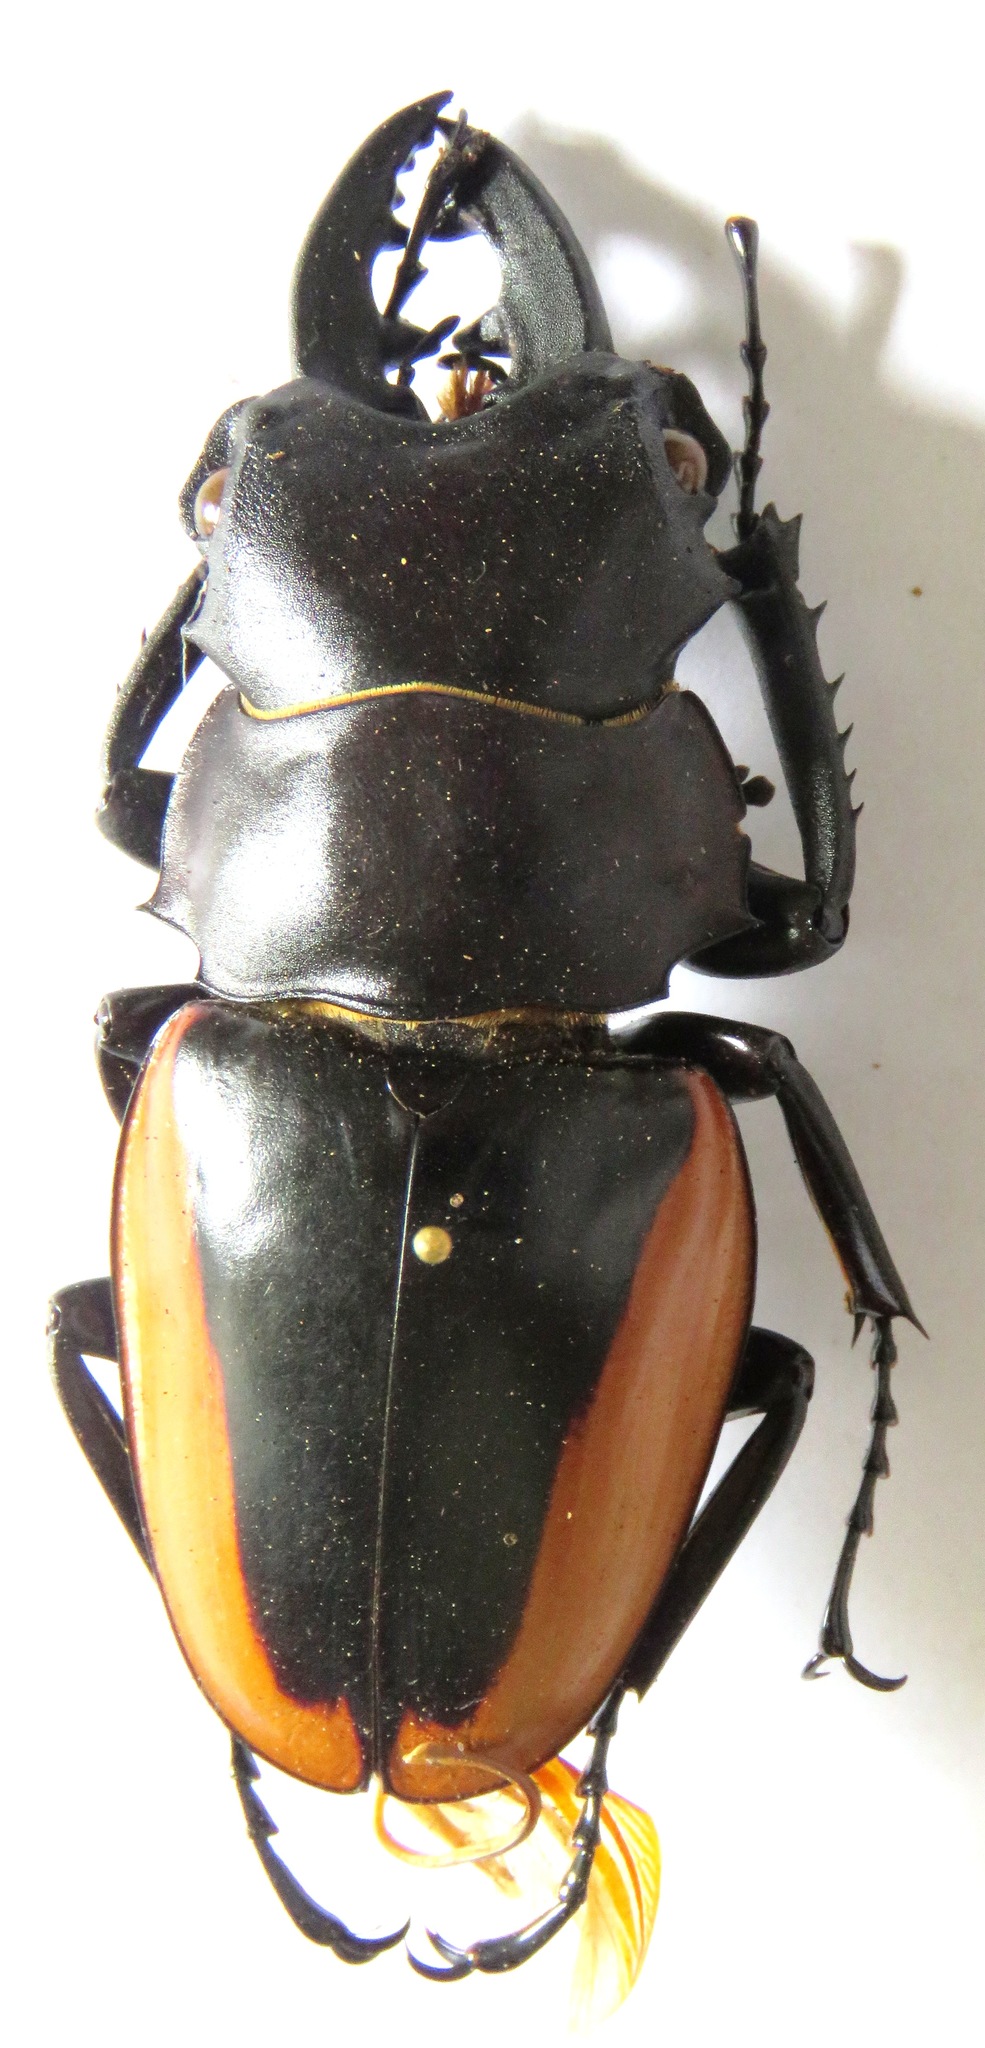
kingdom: Animalia
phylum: Arthropoda
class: Insecta
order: Coleoptera
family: Lucanidae
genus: Odontolabis
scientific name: Odontolabis cuvera
